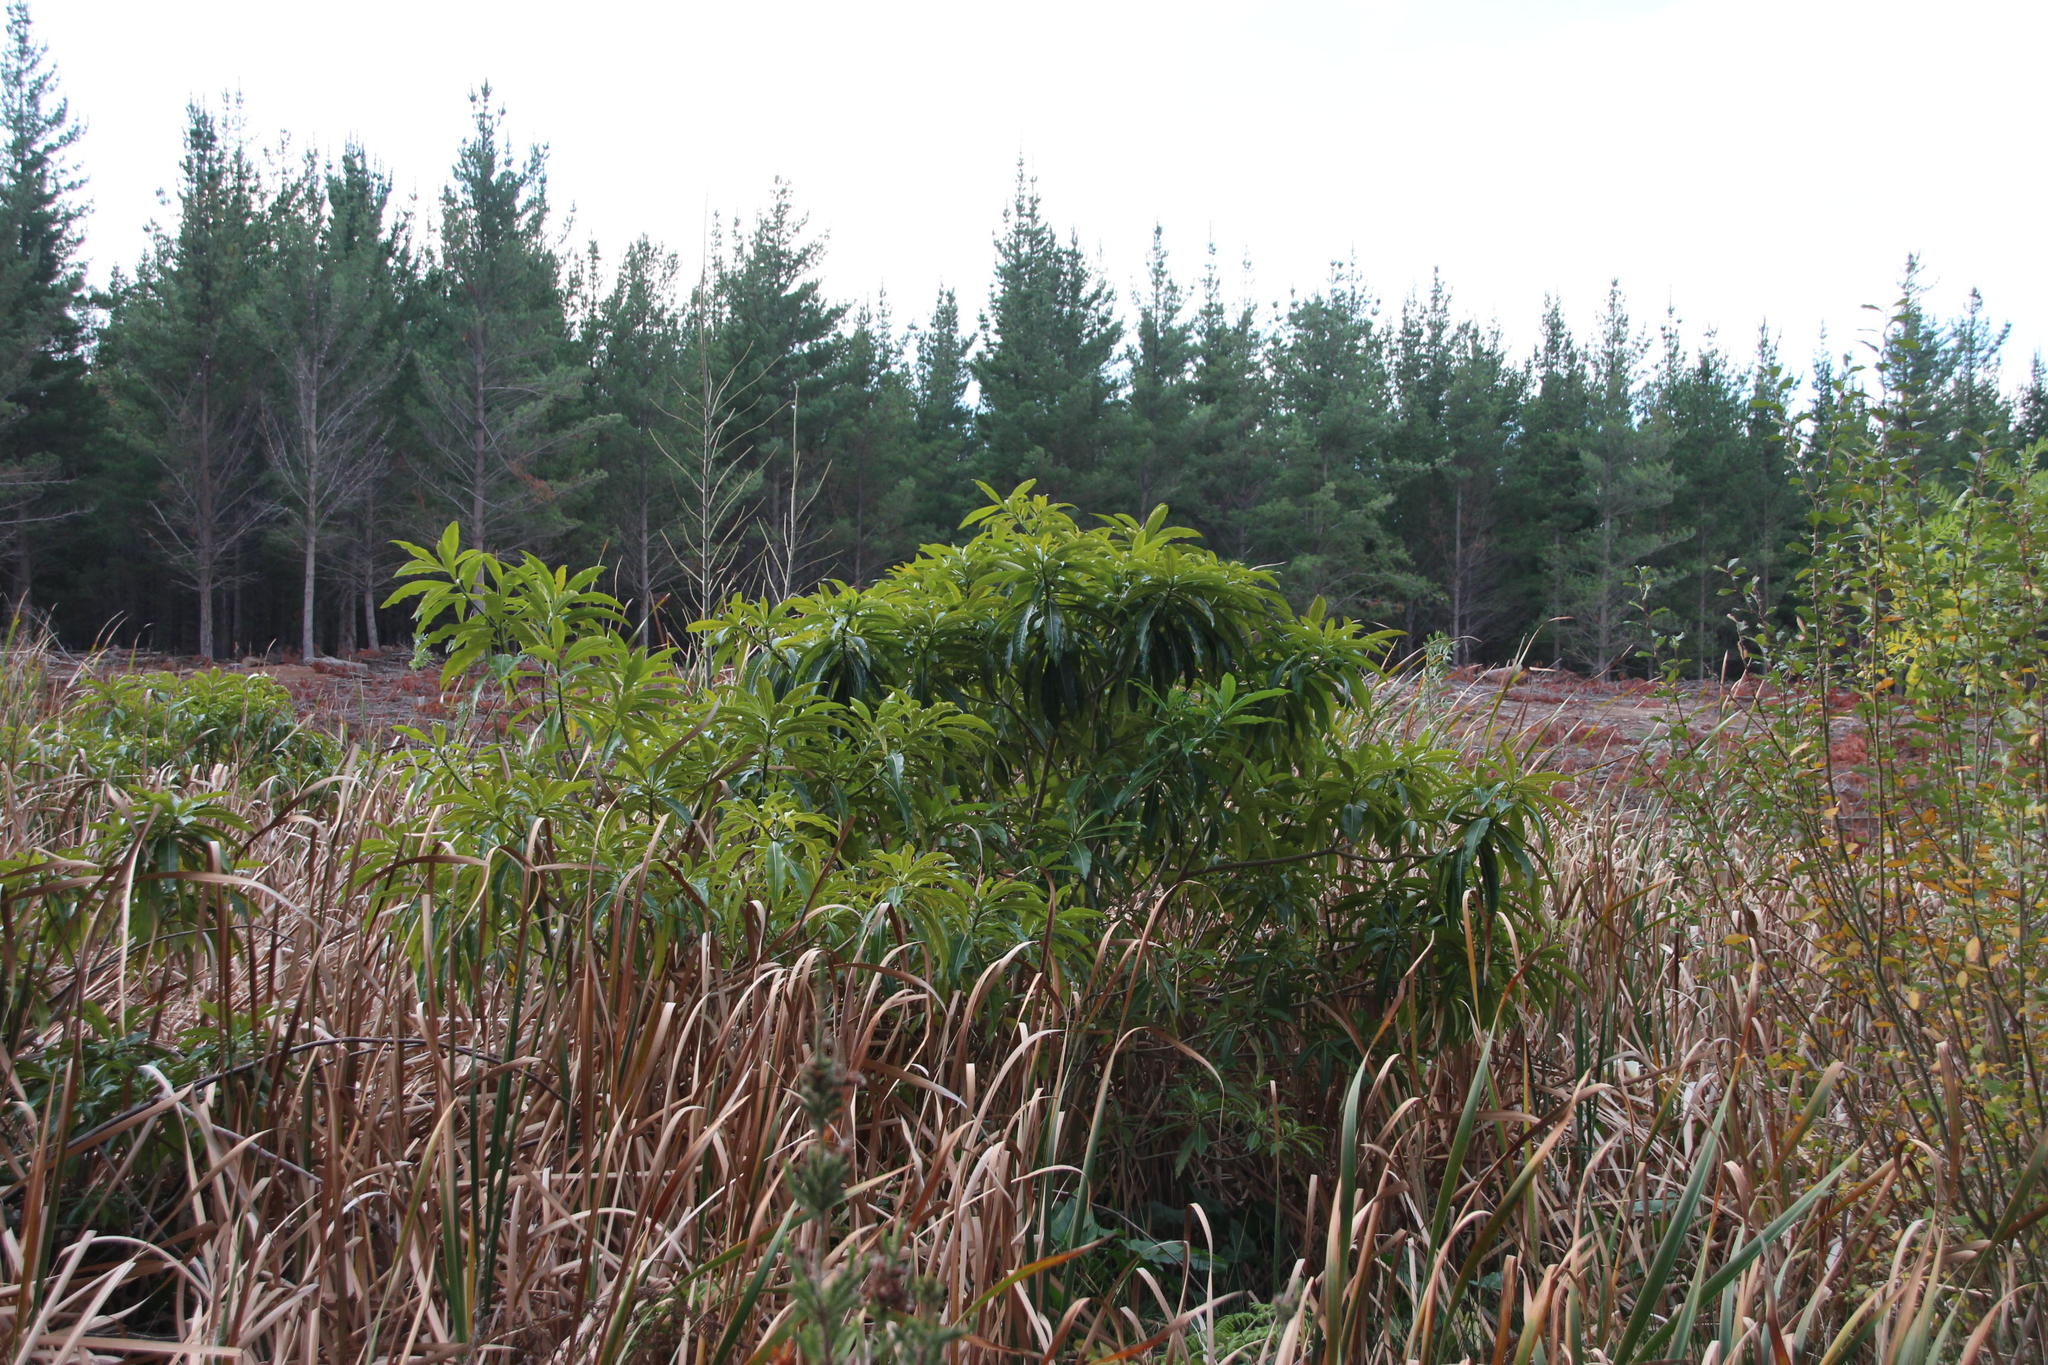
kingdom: Plantae
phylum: Tracheophyta
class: Magnoliopsida
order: Gentianales
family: Apocynaceae
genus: Rauvolfia
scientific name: Rauvolfia caffra
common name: Quininetree
